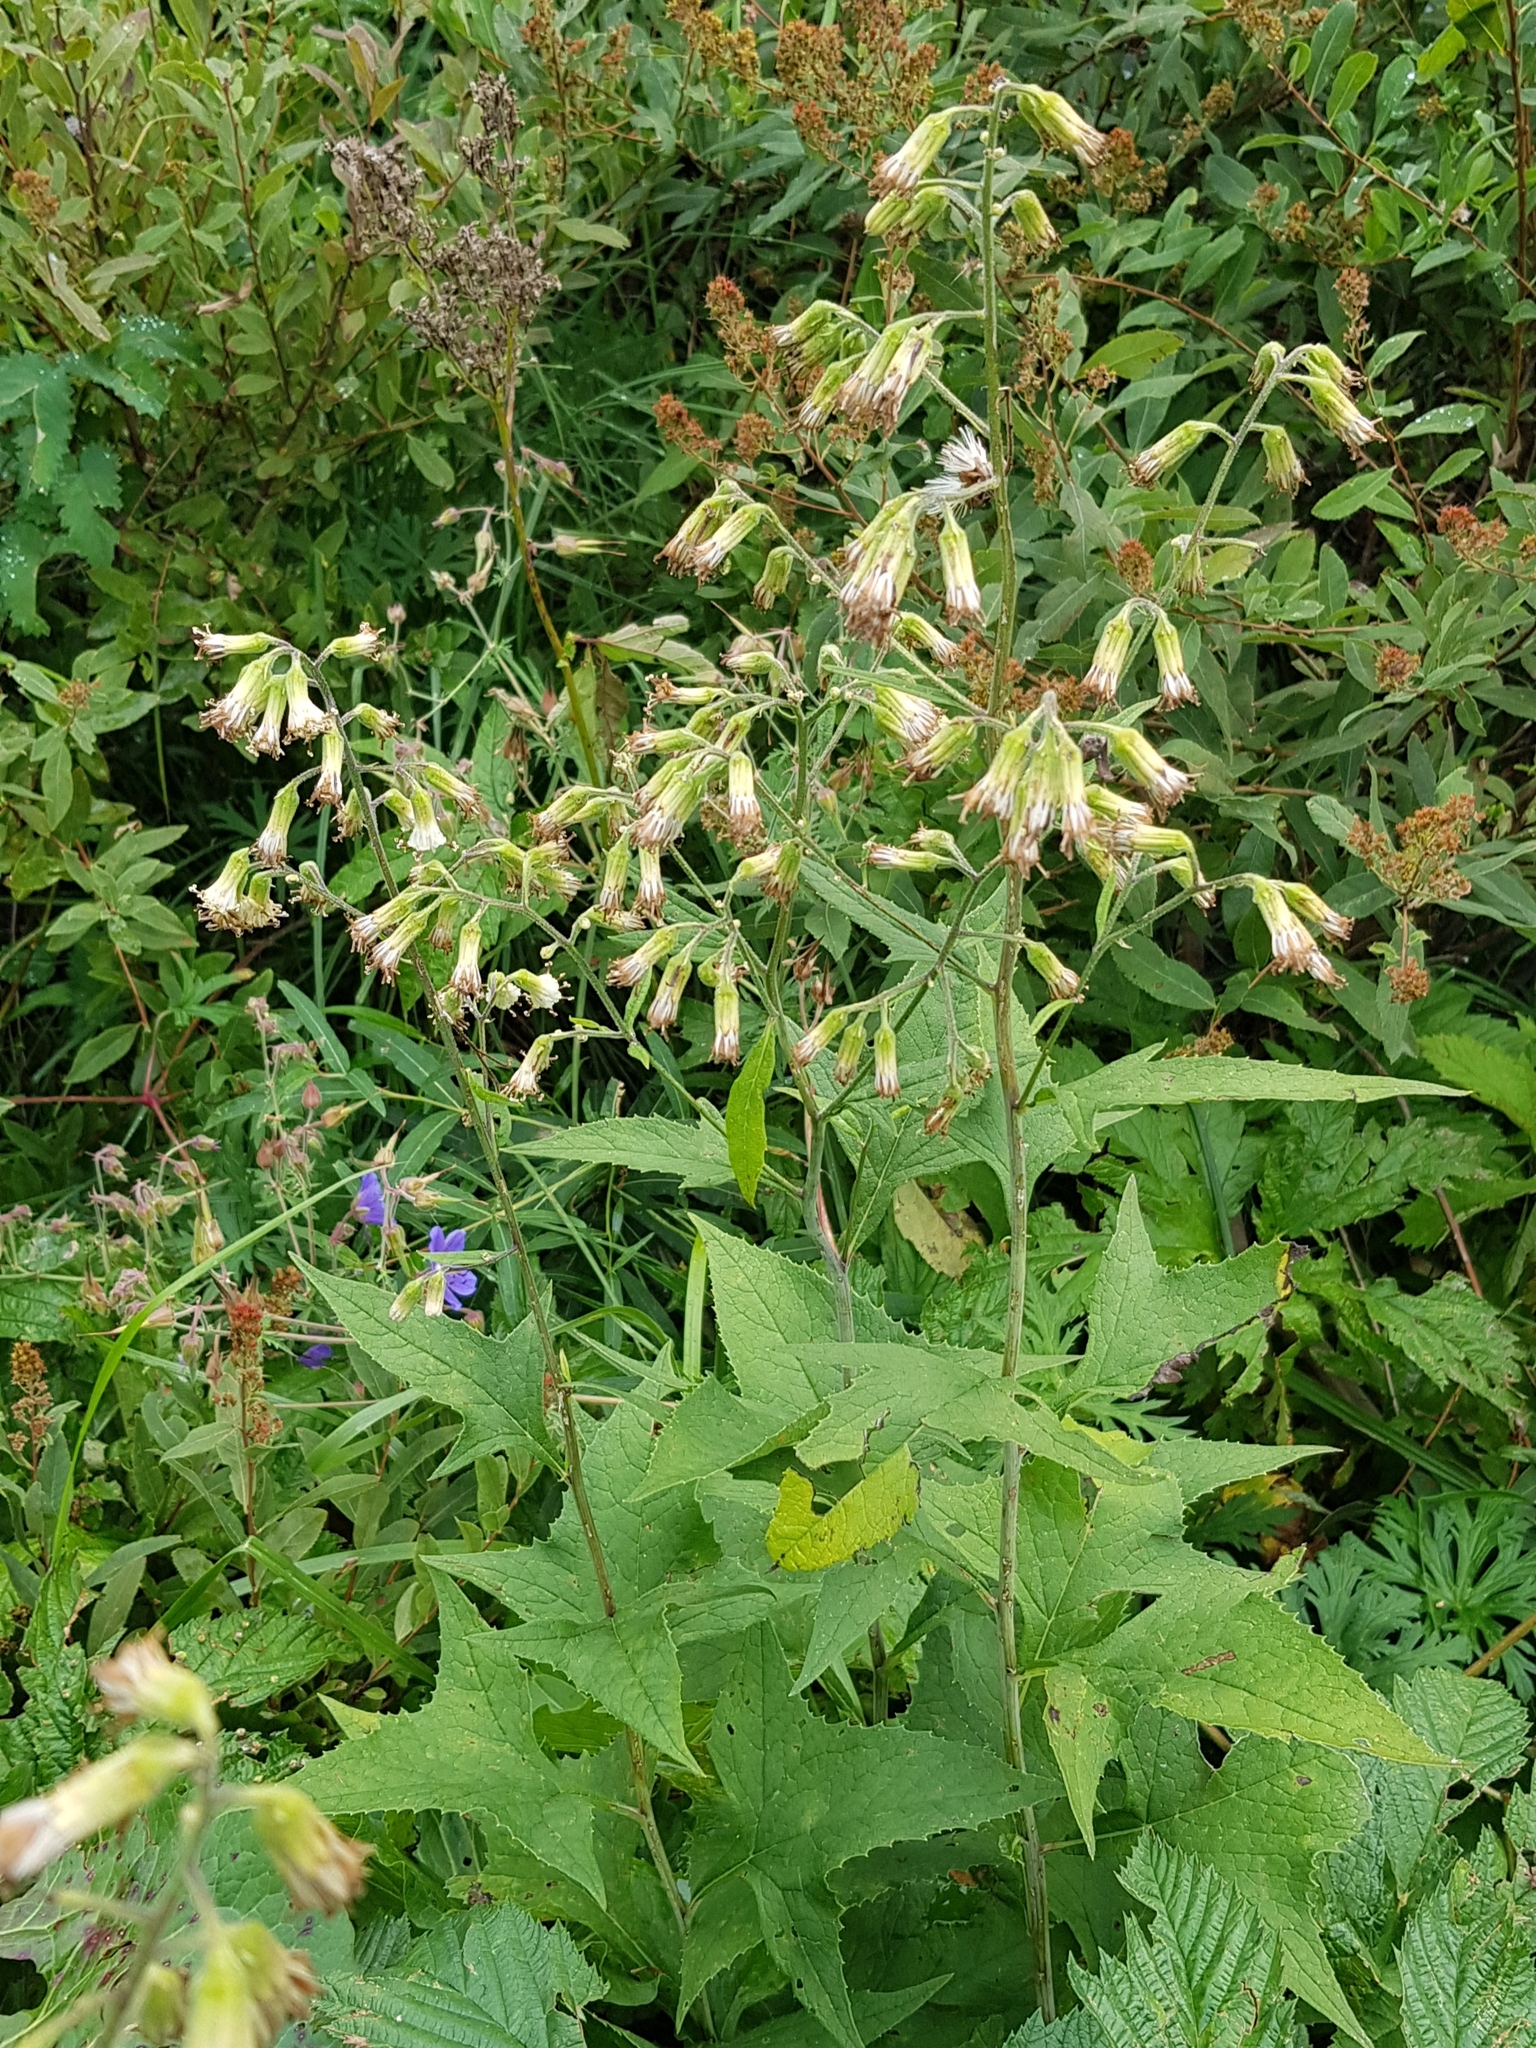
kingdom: Plantae
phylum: Tracheophyta
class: Magnoliopsida
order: Asterales
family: Asteraceae
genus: Parasenecio
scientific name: Parasenecio hastatus
